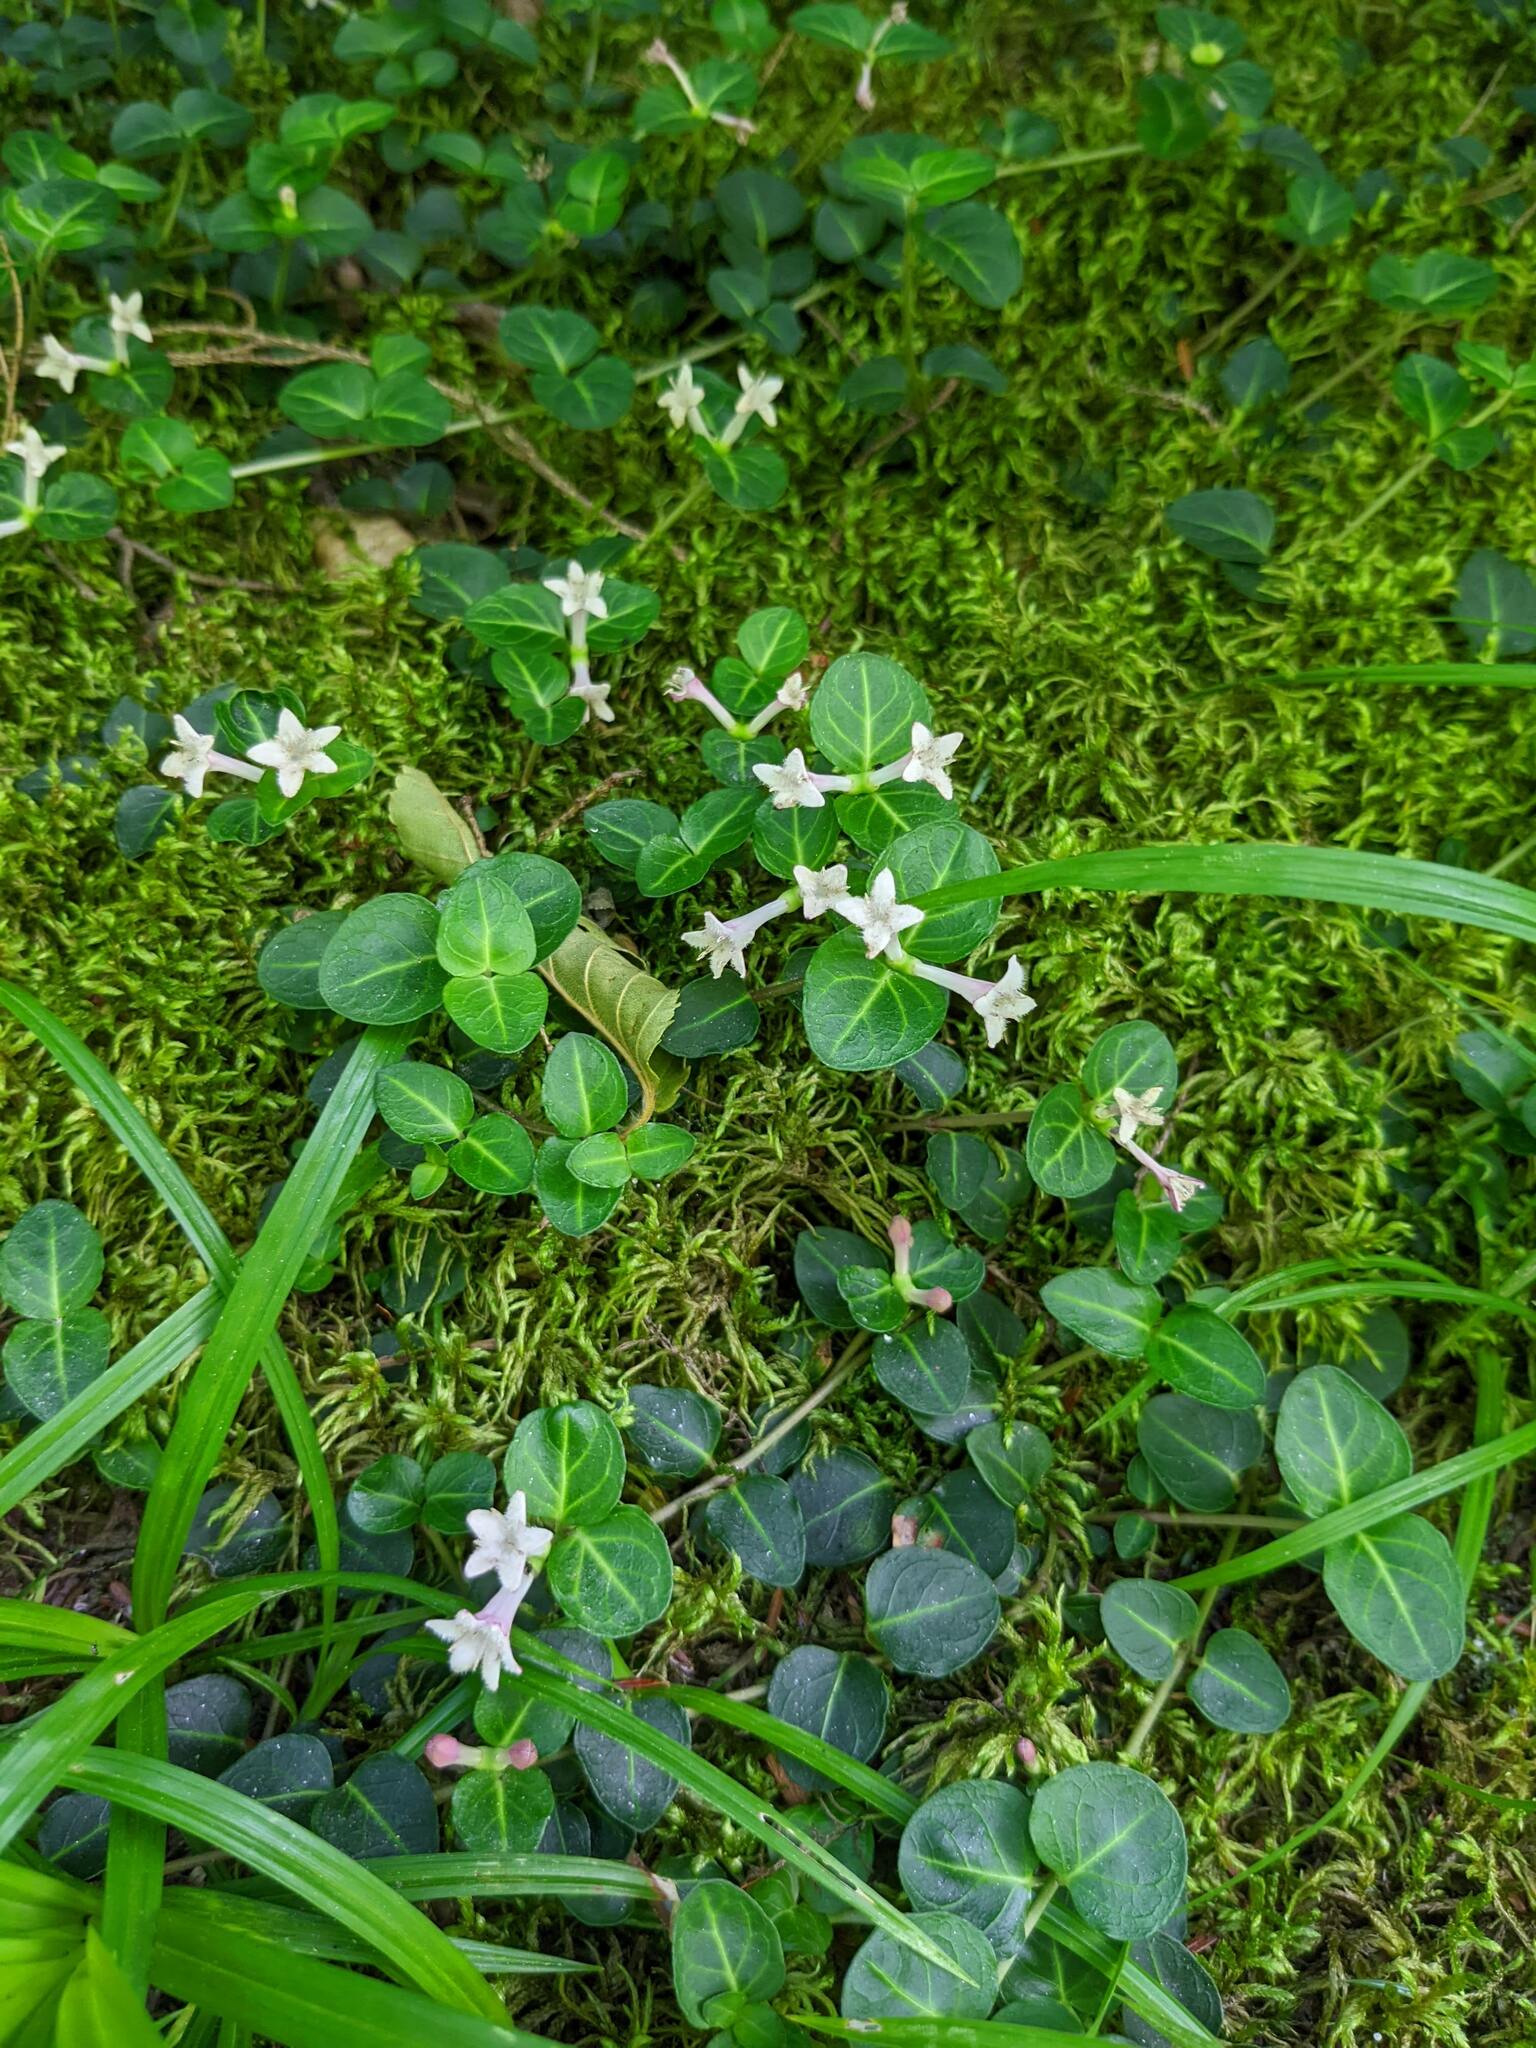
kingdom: Plantae
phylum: Tracheophyta
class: Magnoliopsida
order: Gentianales
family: Rubiaceae
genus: Mitchella
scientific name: Mitchella repens
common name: Partridge-berry
